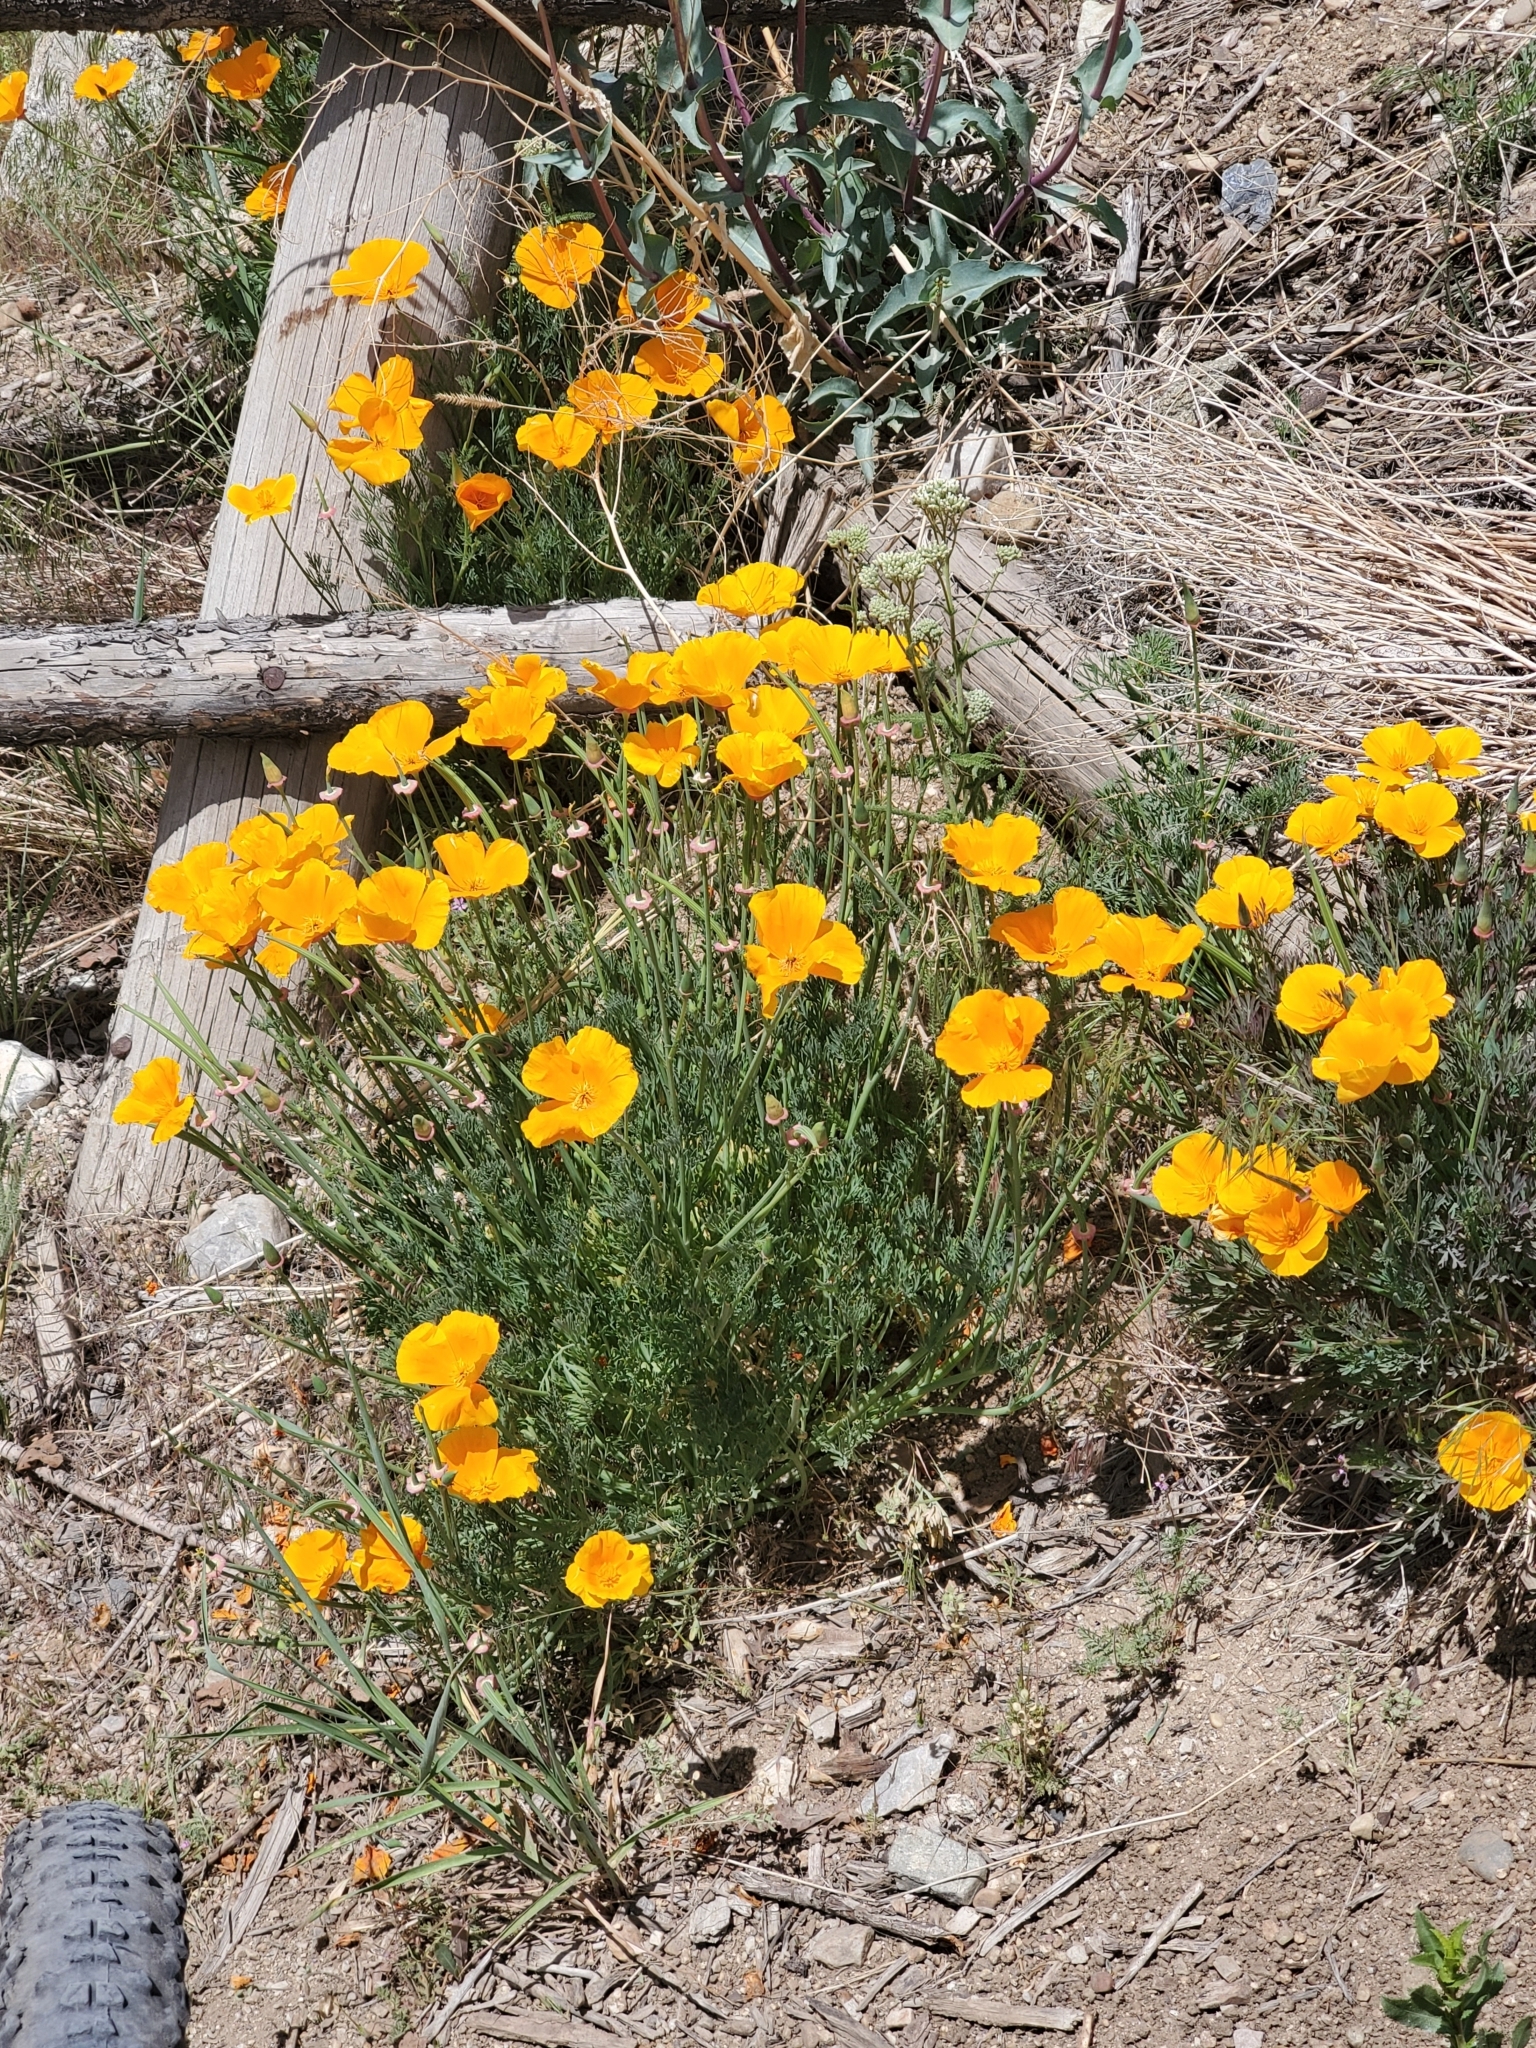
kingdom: Plantae
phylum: Tracheophyta
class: Magnoliopsida
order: Ranunculales
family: Papaveraceae
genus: Eschscholzia
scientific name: Eschscholzia californica
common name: California poppy
